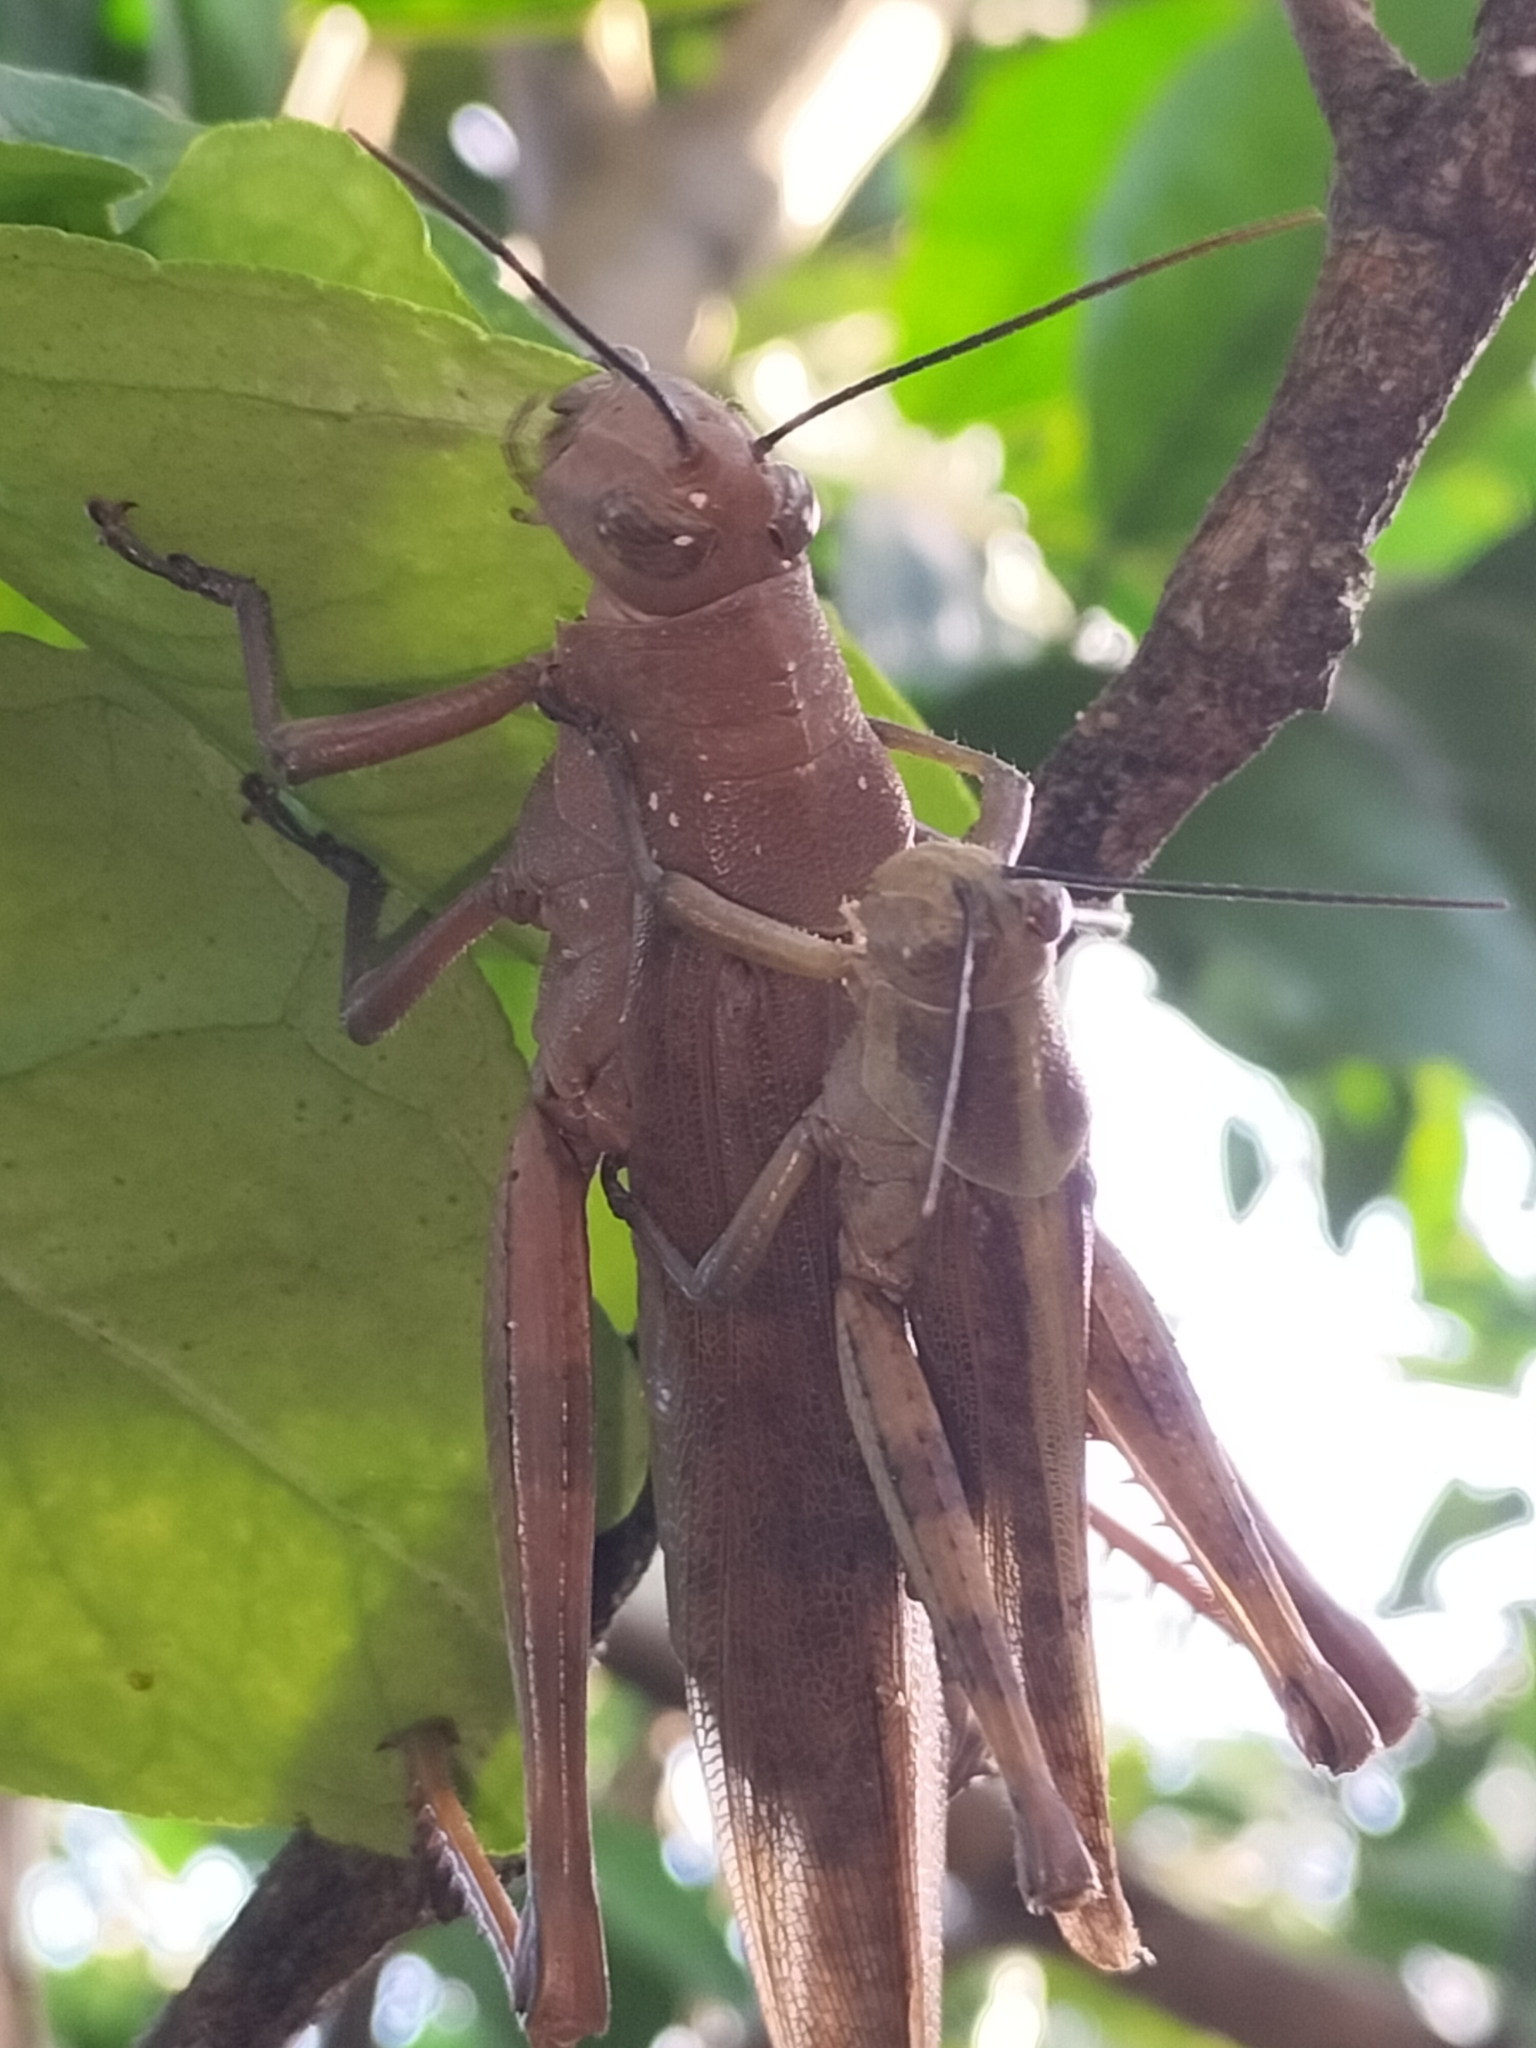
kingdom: Animalia
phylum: Arthropoda
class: Insecta
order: Orthoptera
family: Acrididae
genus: Valanga
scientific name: Valanga irregularis
